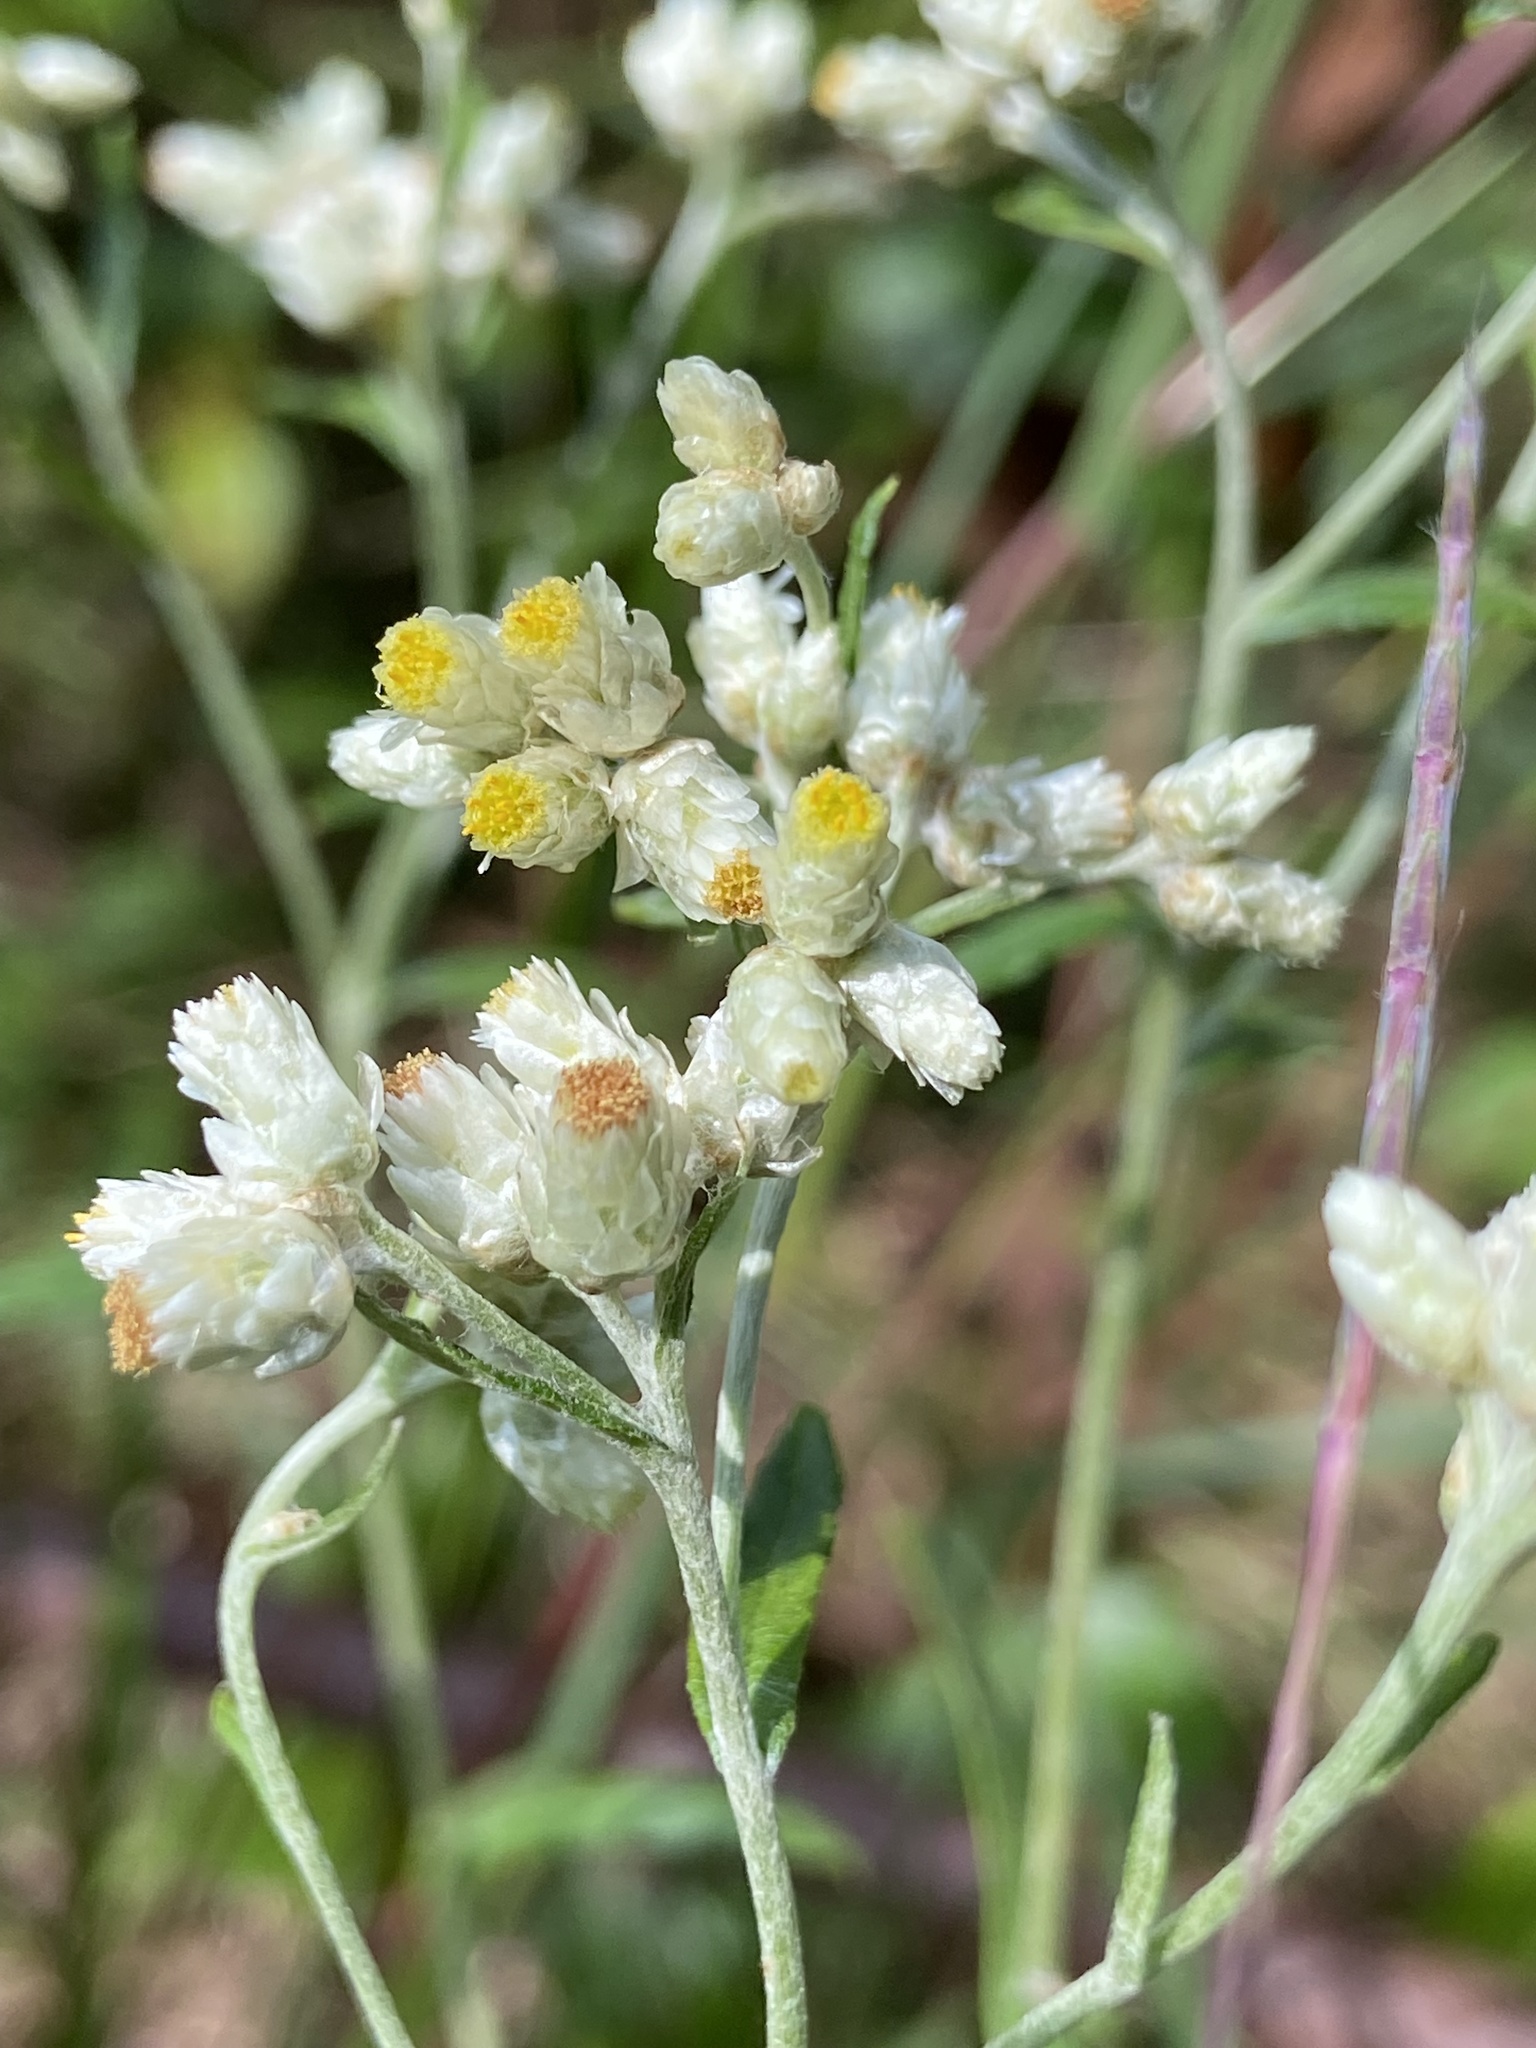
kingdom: Plantae
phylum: Tracheophyta
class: Magnoliopsida
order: Asterales
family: Asteraceae
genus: Pseudognaphalium
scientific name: Pseudognaphalium obtusifolium
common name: Eastern rabbit-tobacco
